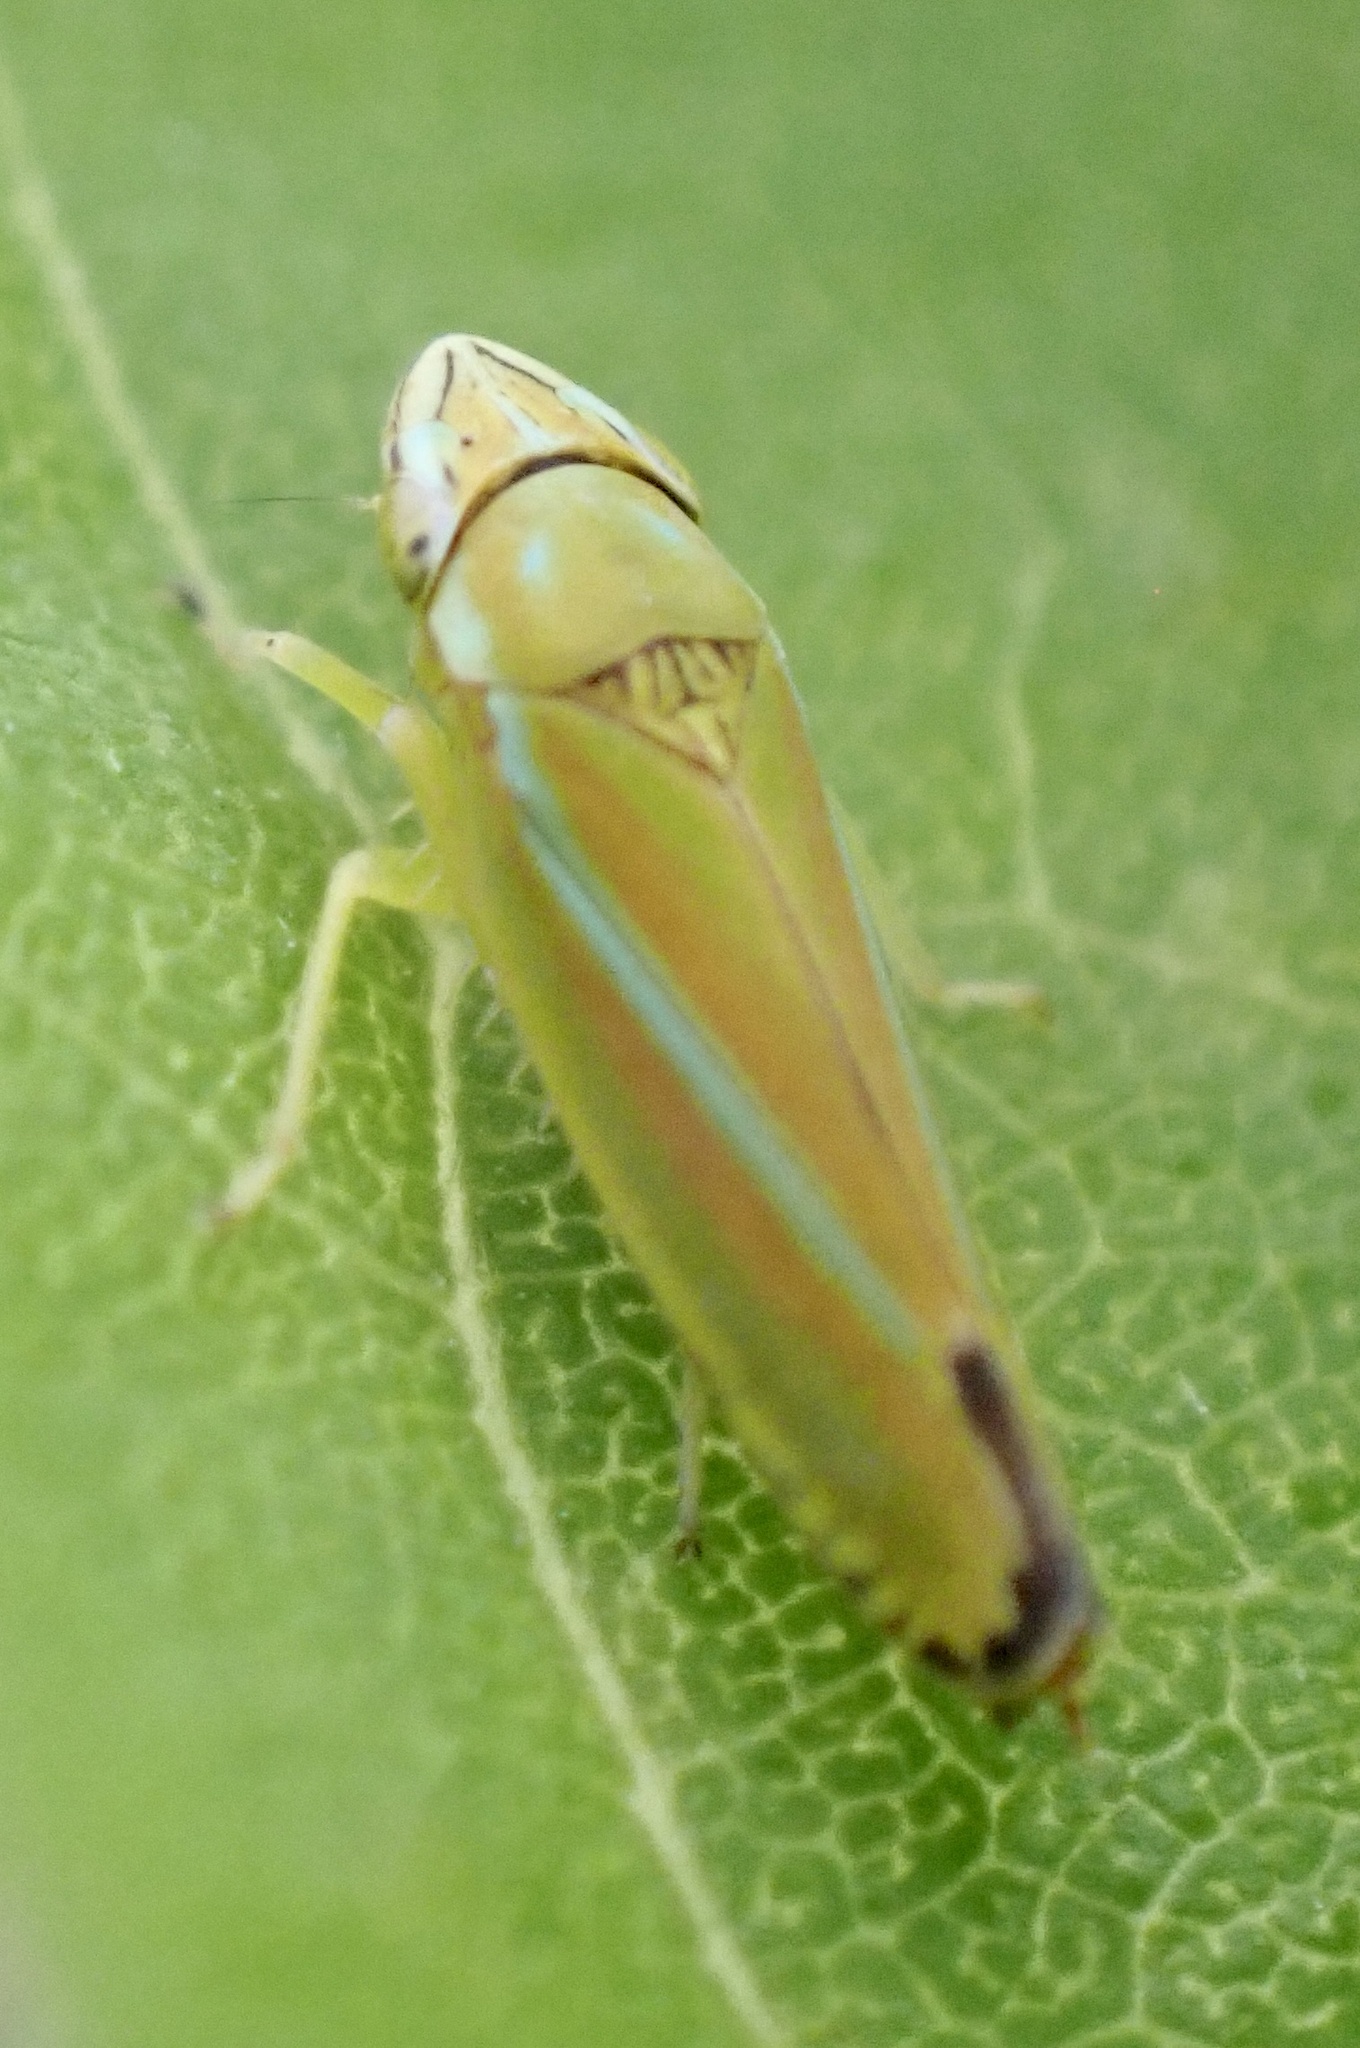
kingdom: Animalia
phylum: Arthropoda
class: Insecta
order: Hemiptera
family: Cicadellidae
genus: Graphocephala
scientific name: Graphocephala versuta
